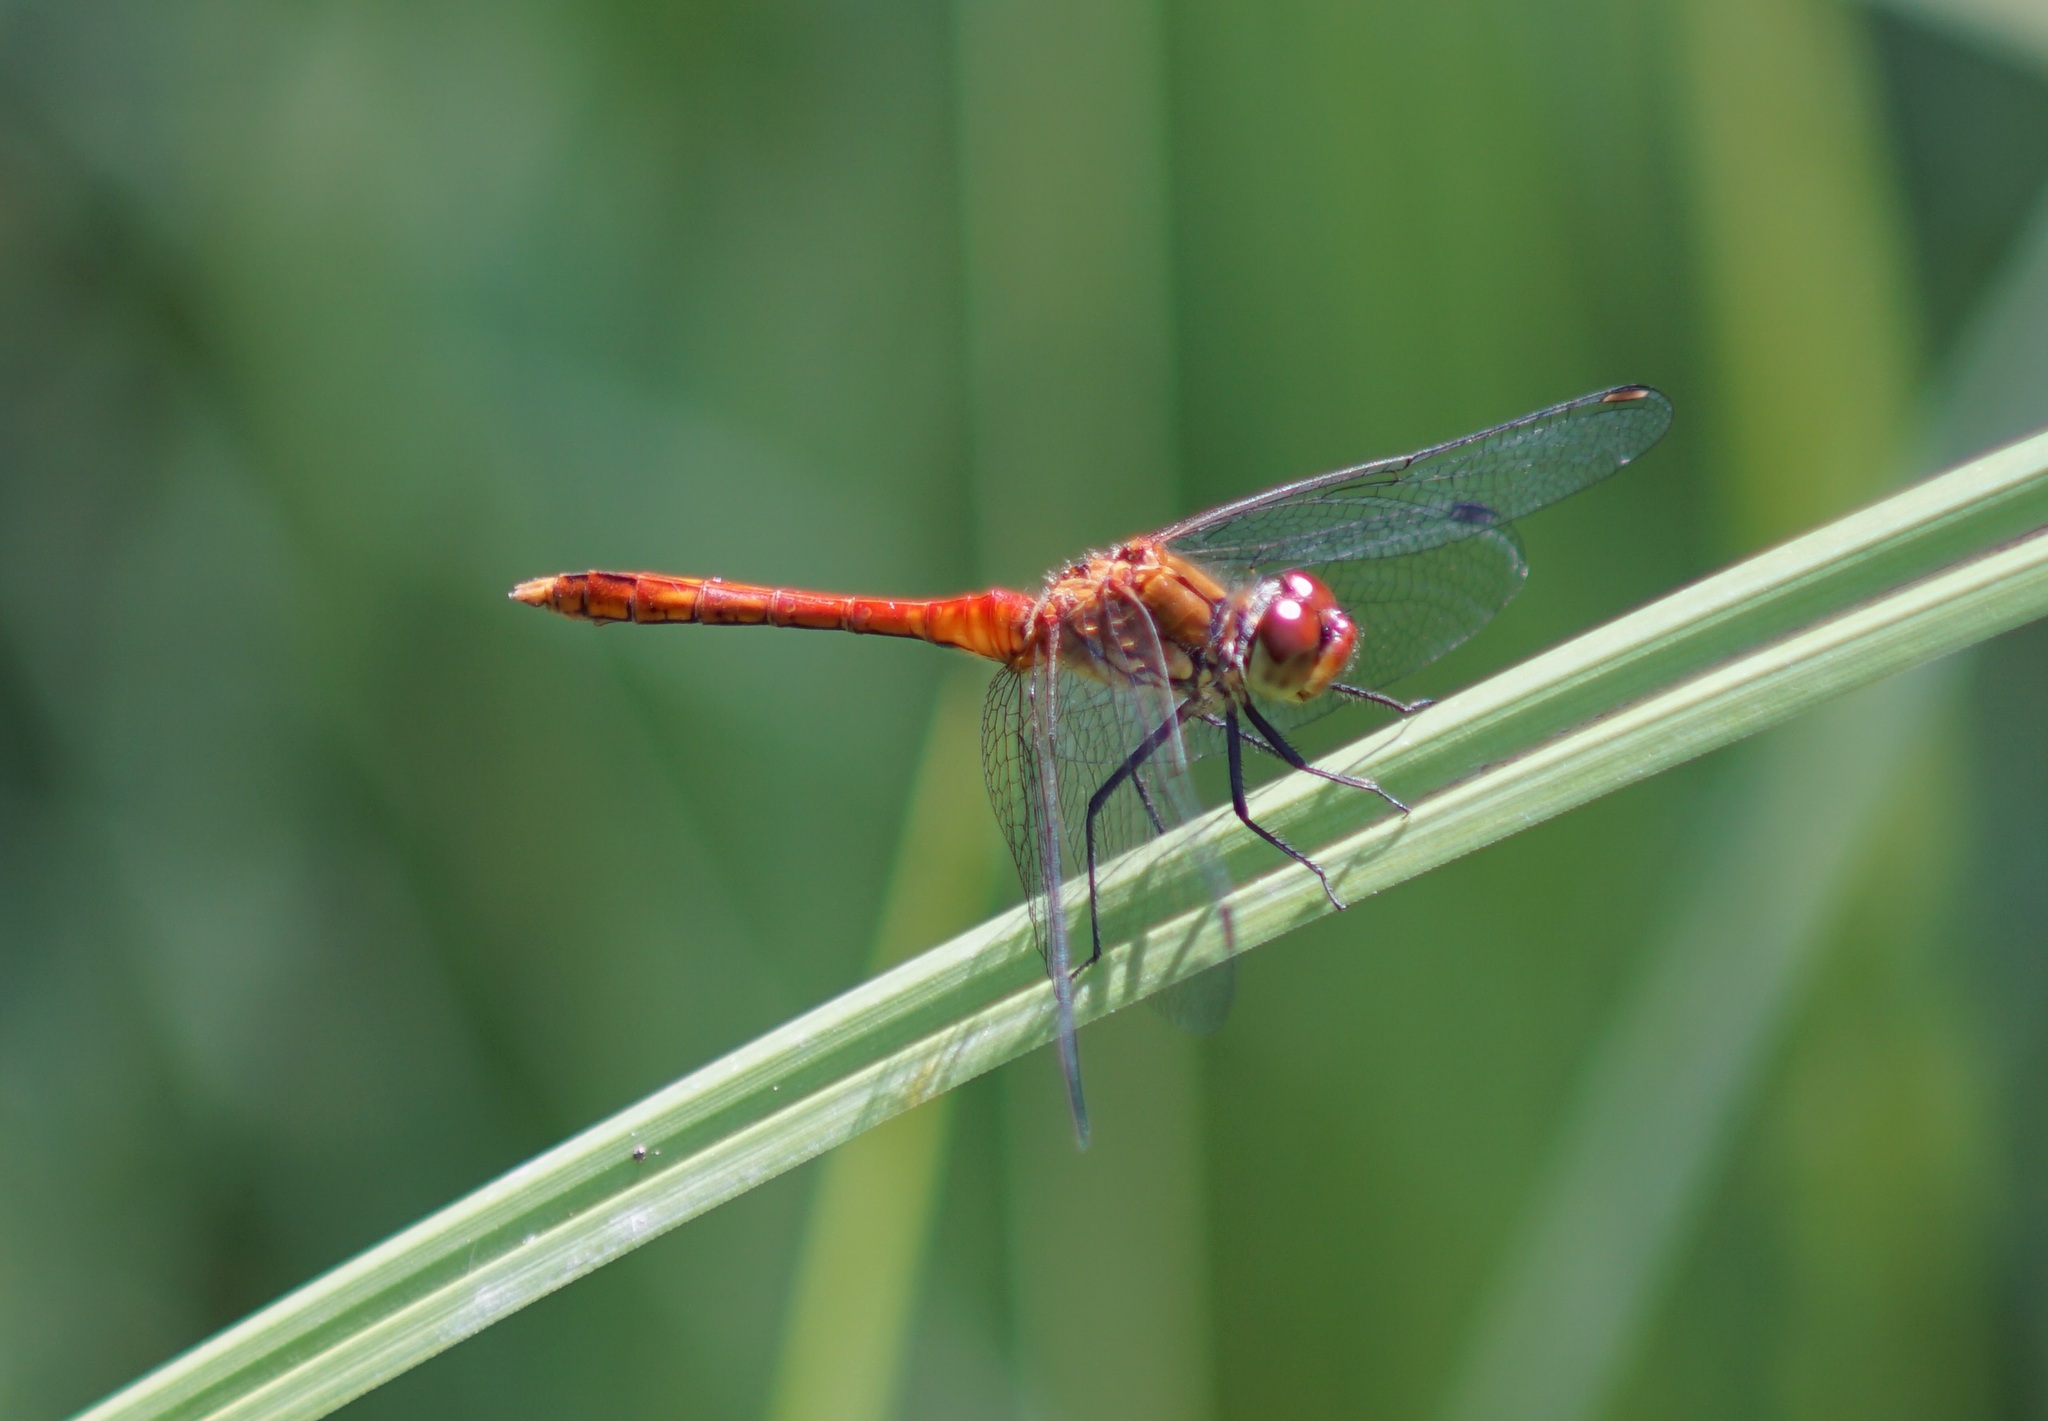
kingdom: Animalia
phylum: Arthropoda
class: Insecta
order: Odonata
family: Libellulidae
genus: Sympetrum
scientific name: Sympetrum sanguineum
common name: Ruddy darter
